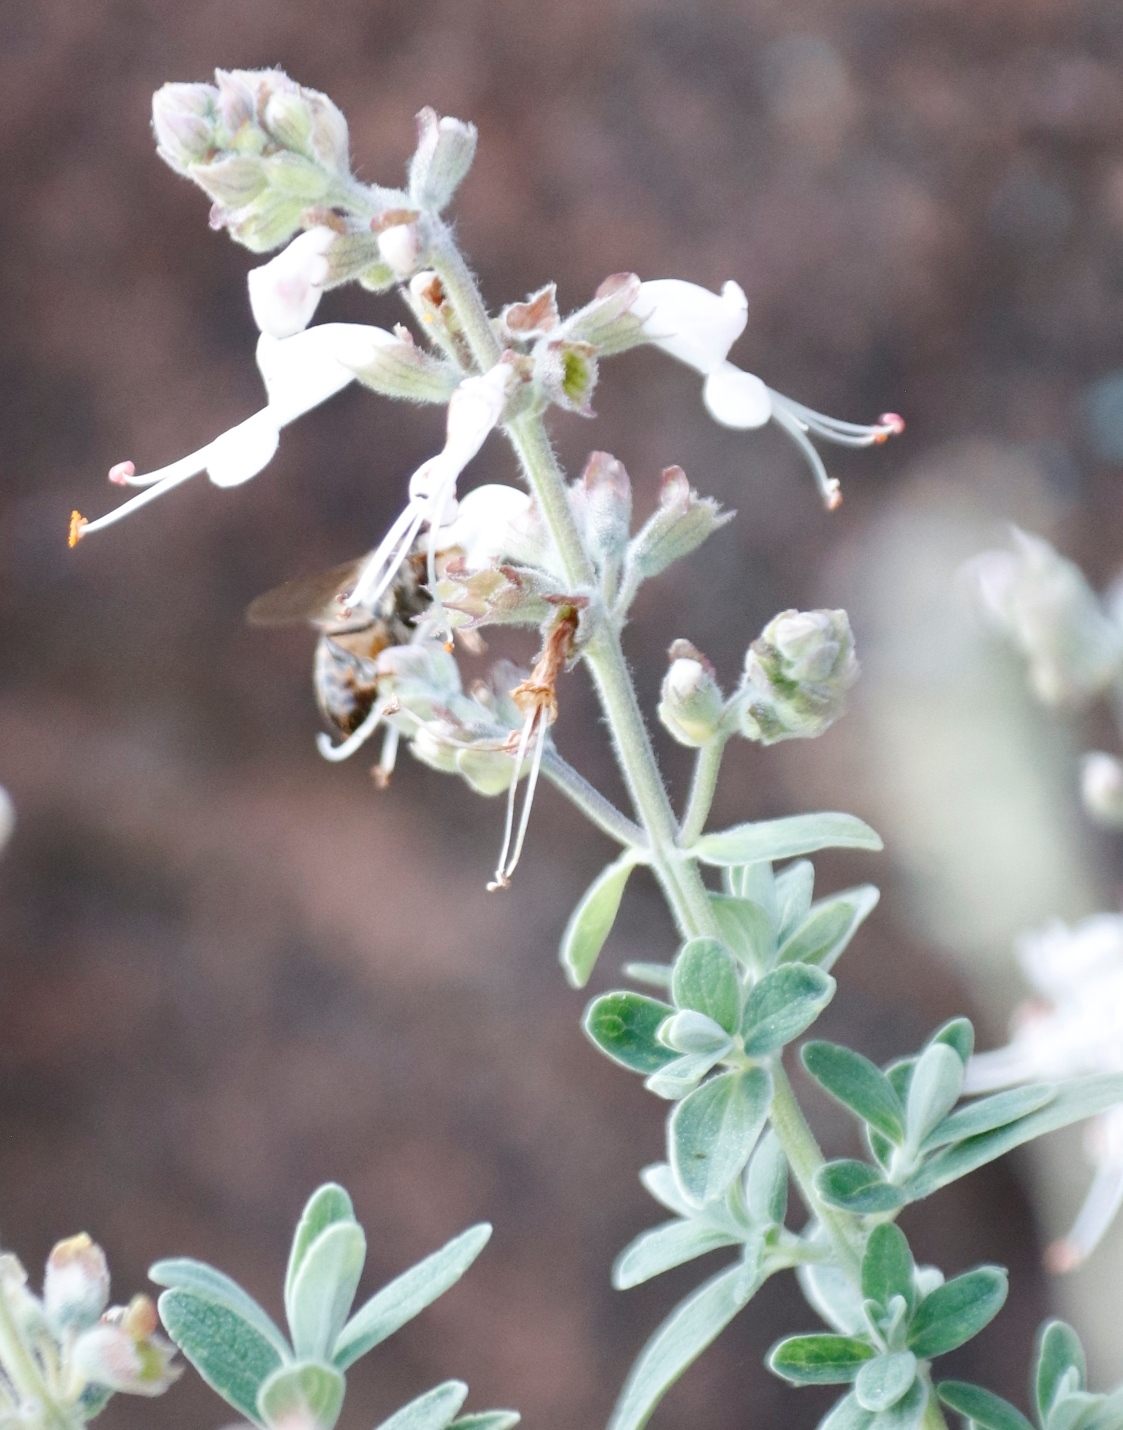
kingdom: Animalia
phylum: Arthropoda
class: Insecta
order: Hymenoptera
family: Apidae
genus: Apis
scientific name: Apis mellifera
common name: Honey bee
